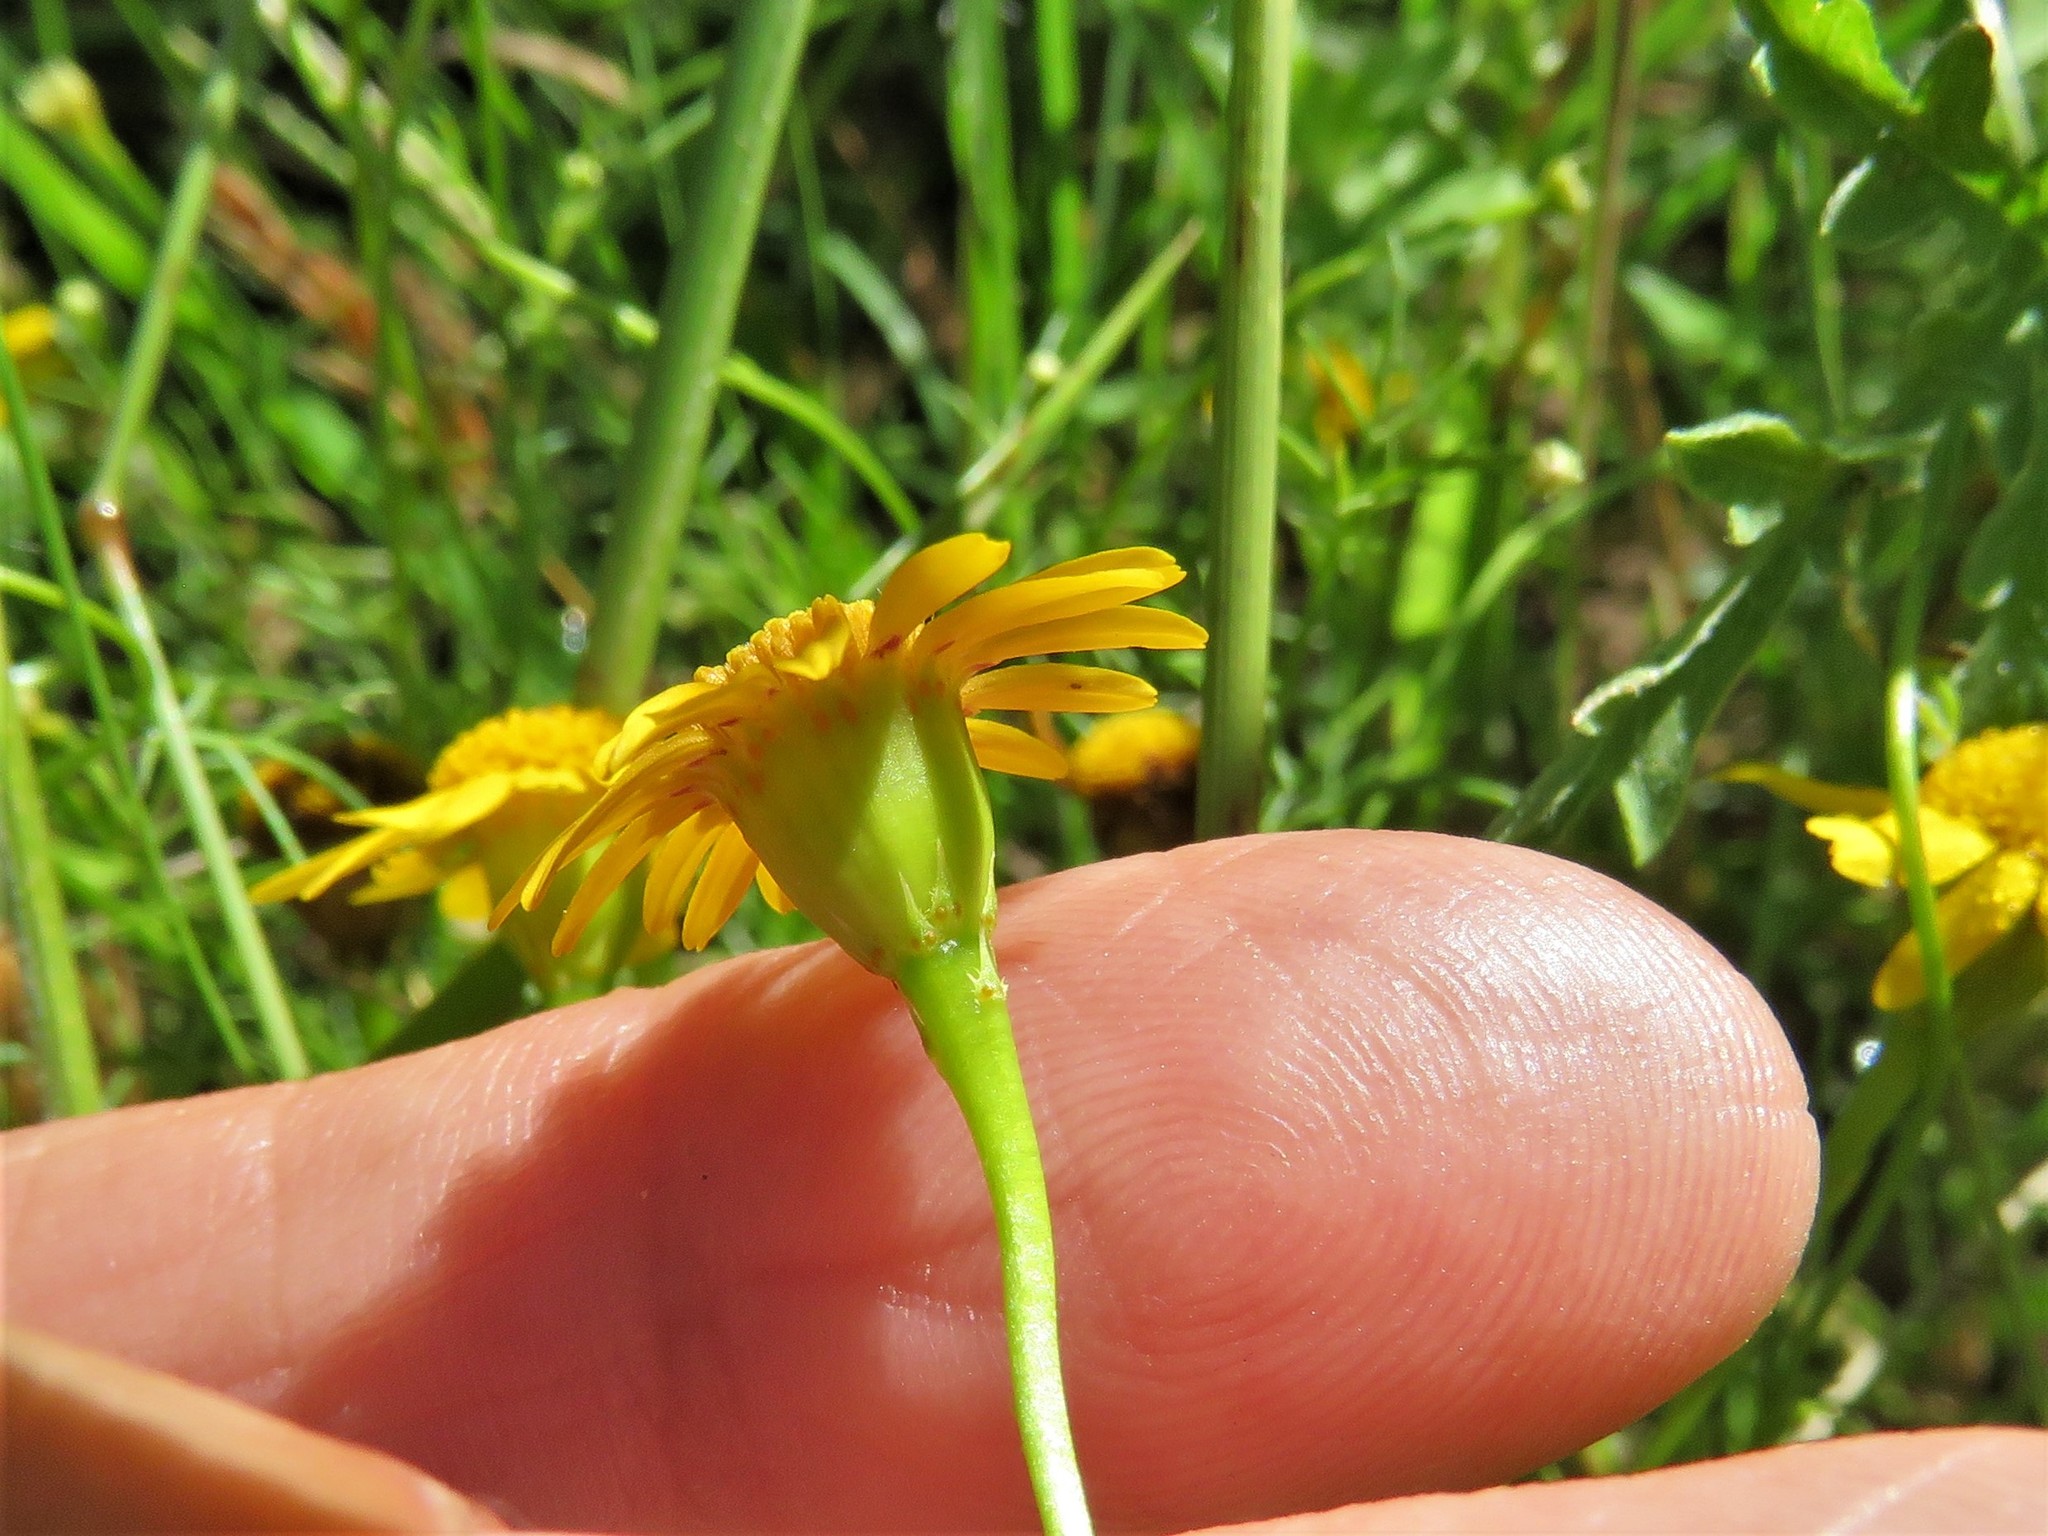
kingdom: Plantae
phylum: Tracheophyta
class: Magnoliopsida
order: Asterales
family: Asteraceae
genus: Thymophylla
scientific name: Thymophylla tenuiloba
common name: Dahlberg's daisy
